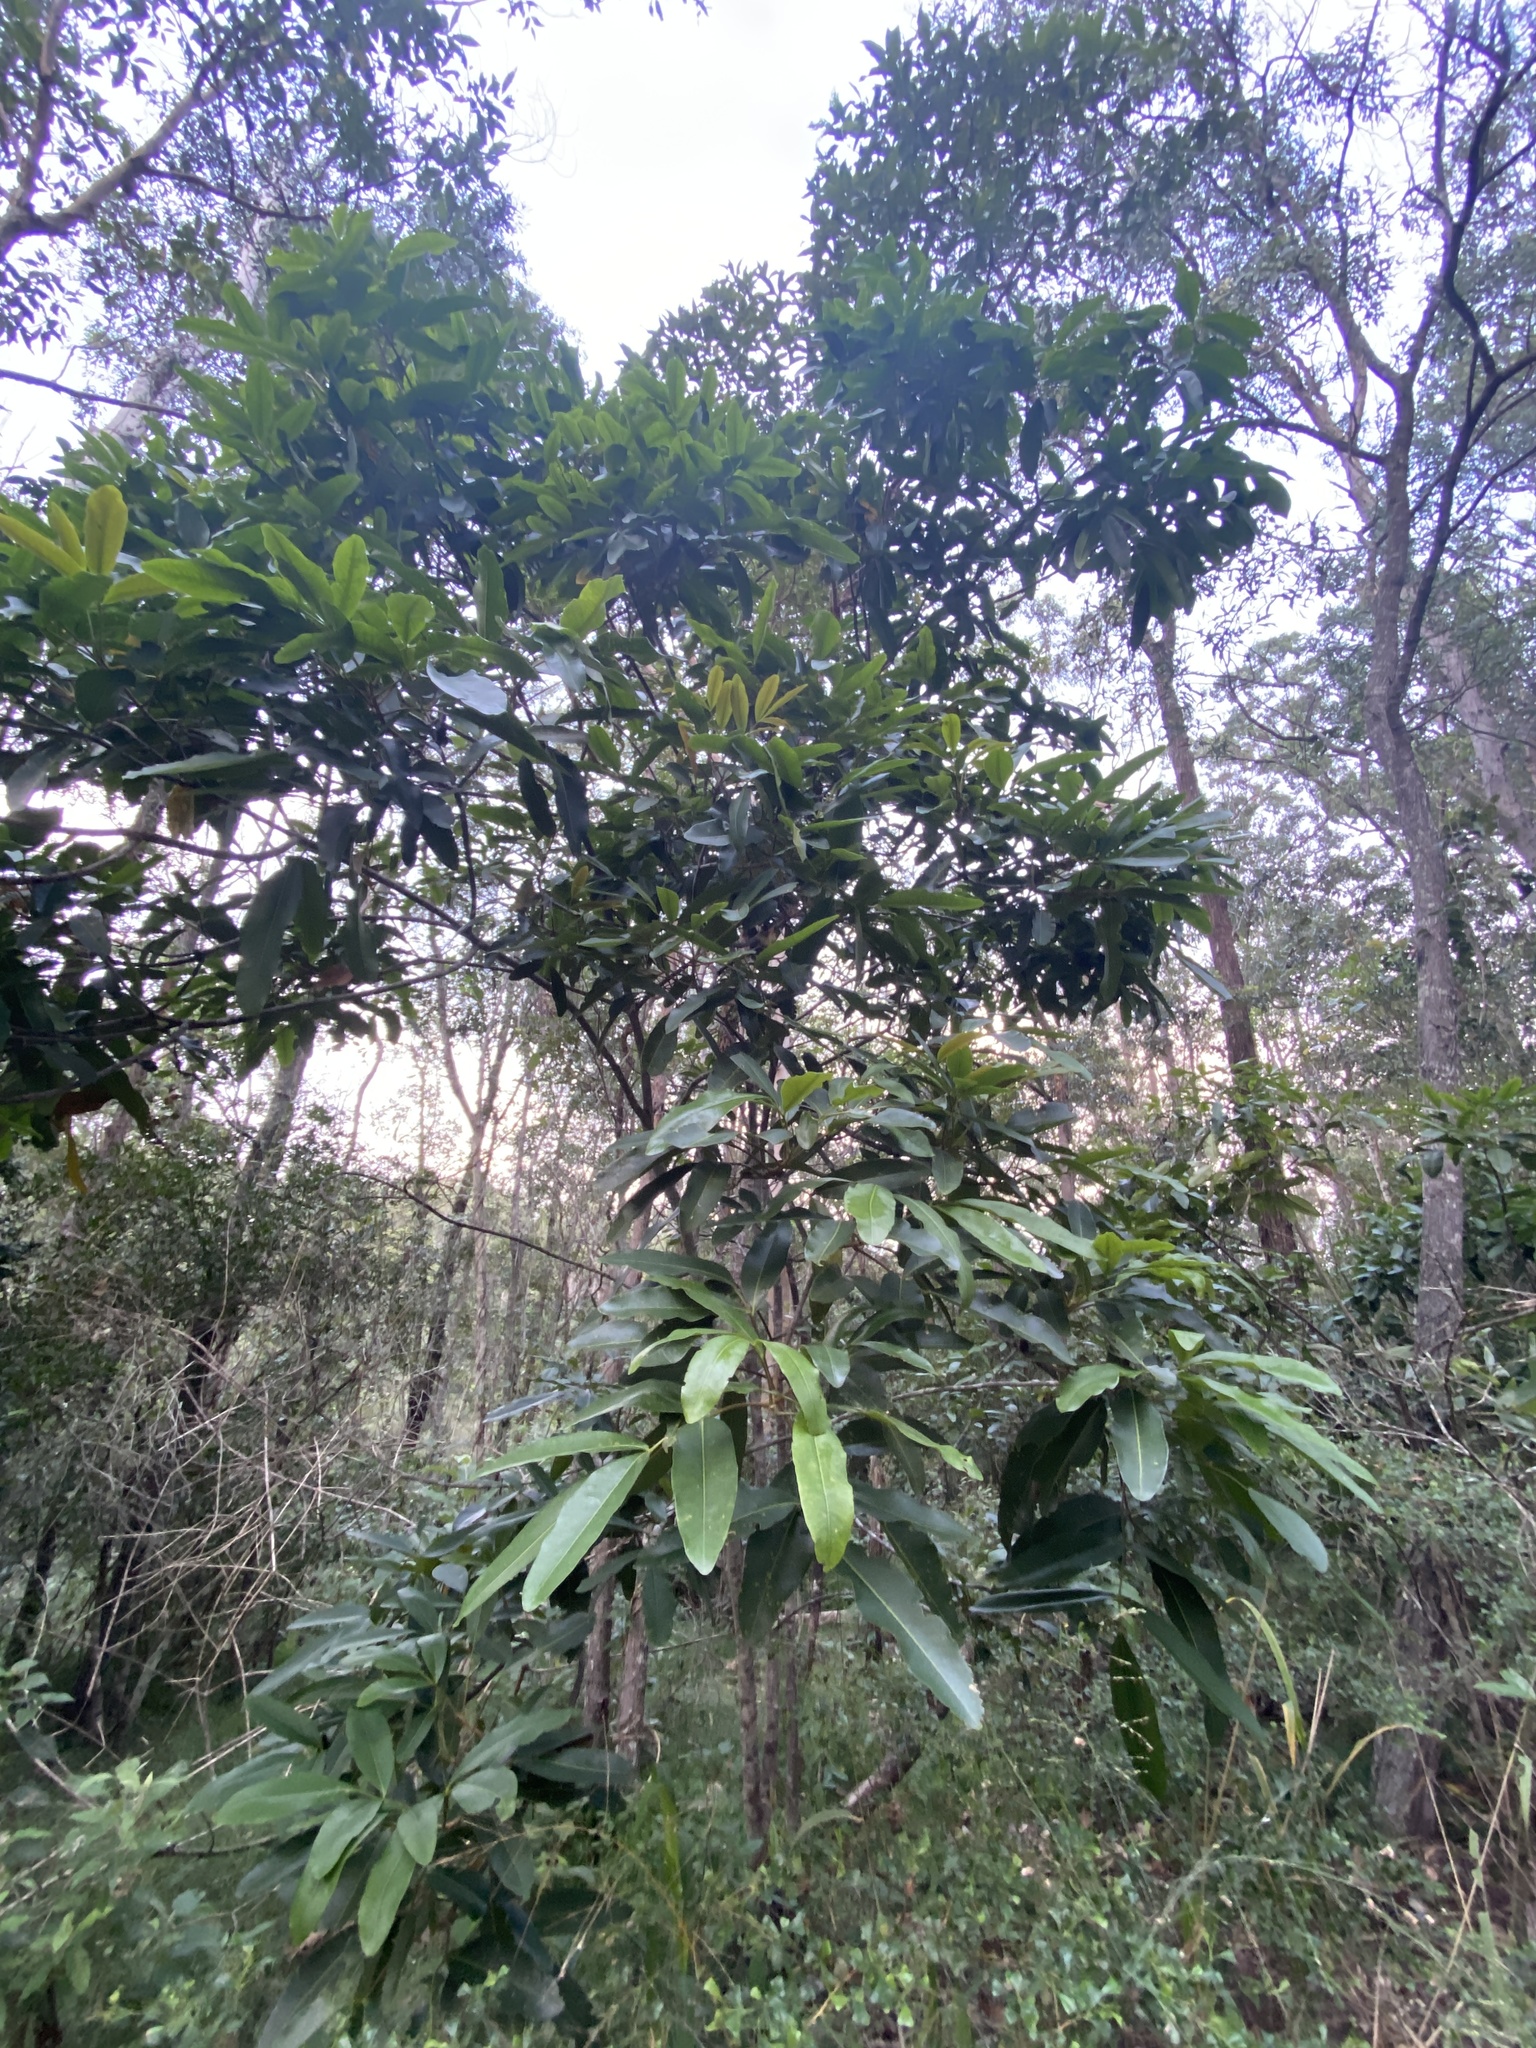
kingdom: Plantae
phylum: Tracheophyta
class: Magnoliopsida
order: Sapindales
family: Rutaceae
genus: Flindersia
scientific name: Flindersia bennettii
